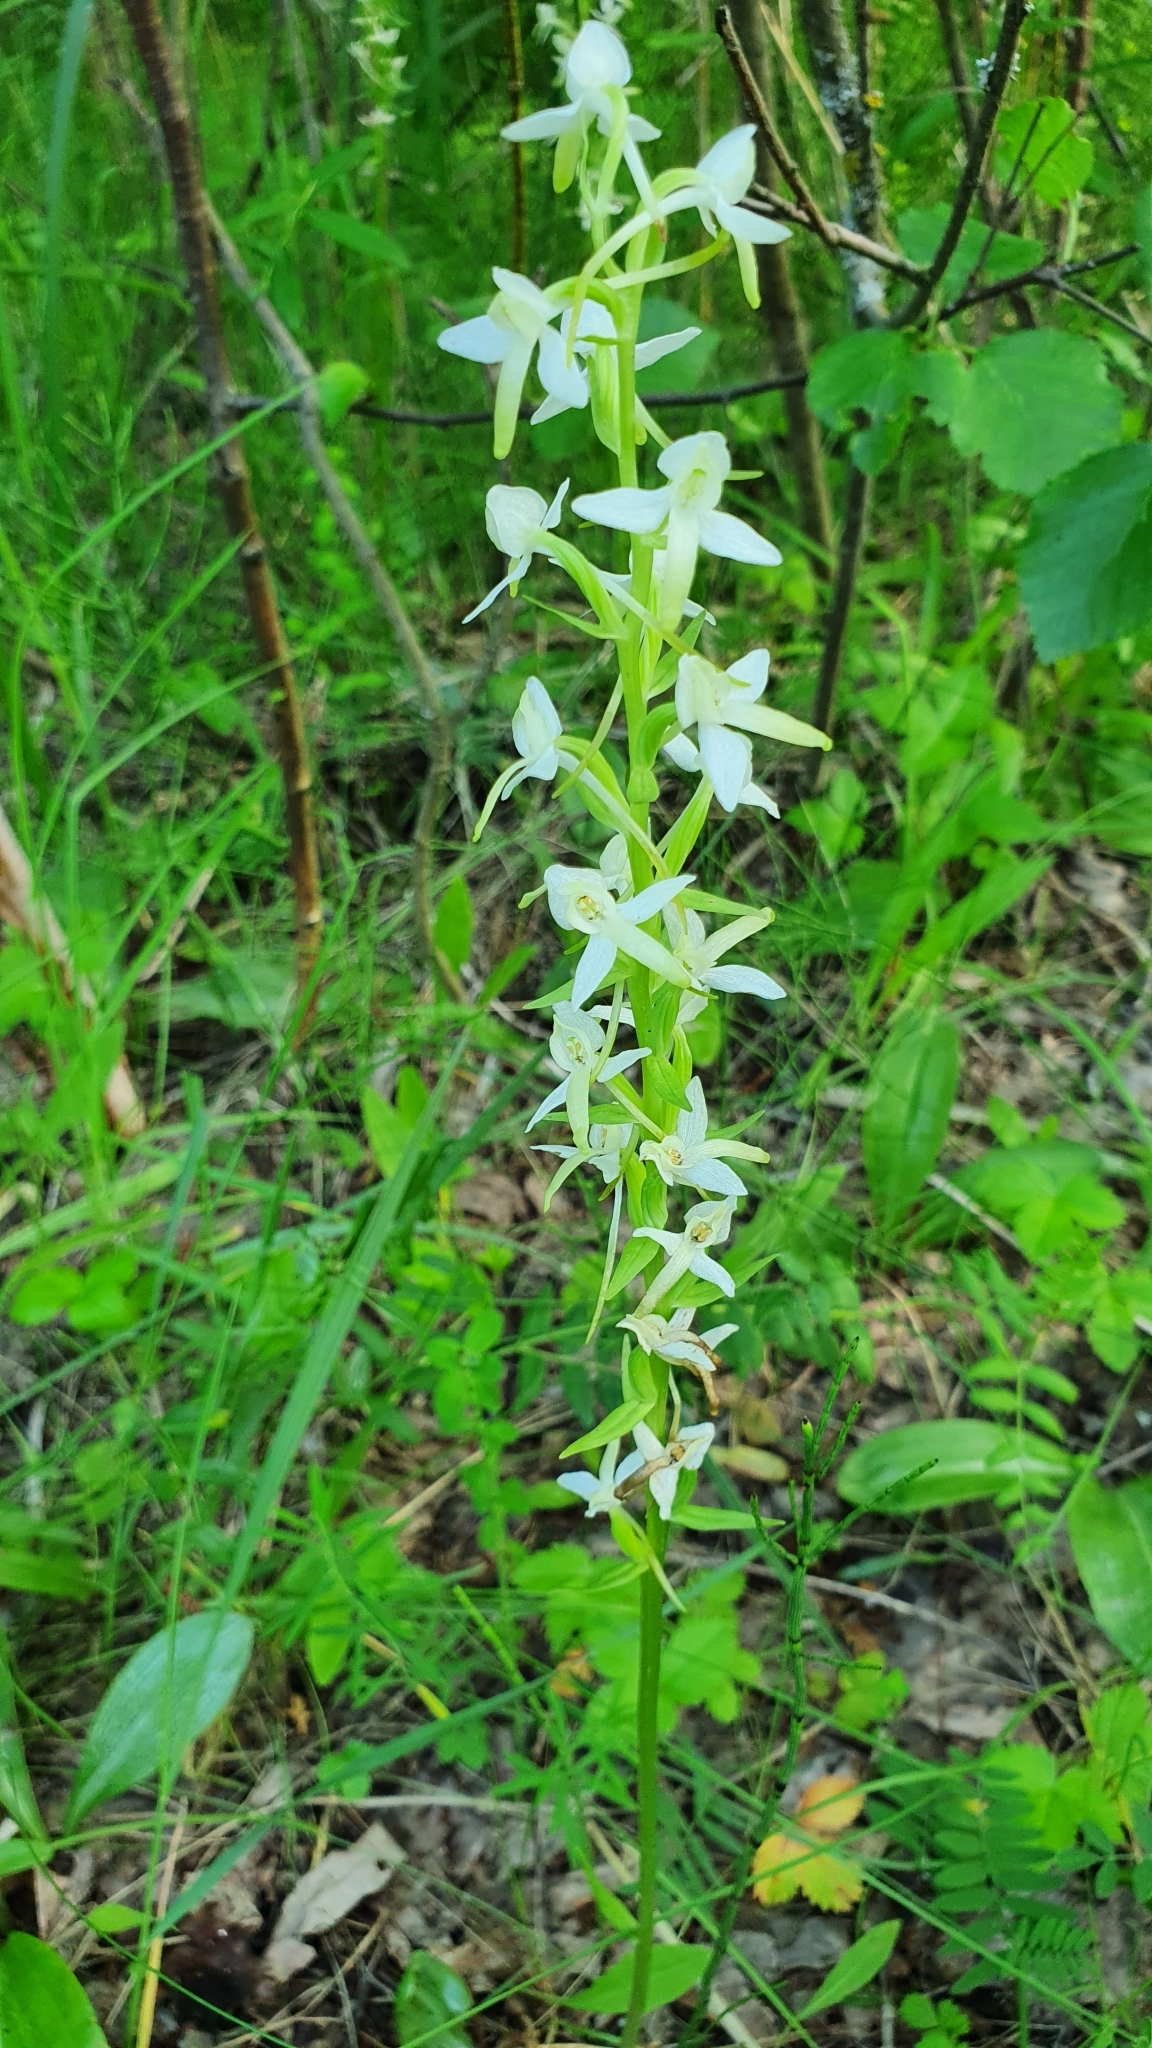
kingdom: Plantae
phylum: Tracheophyta
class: Liliopsida
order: Asparagales
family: Orchidaceae
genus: Platanthera
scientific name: Platanthera bifolia
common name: Lesser butterfly-orchid
